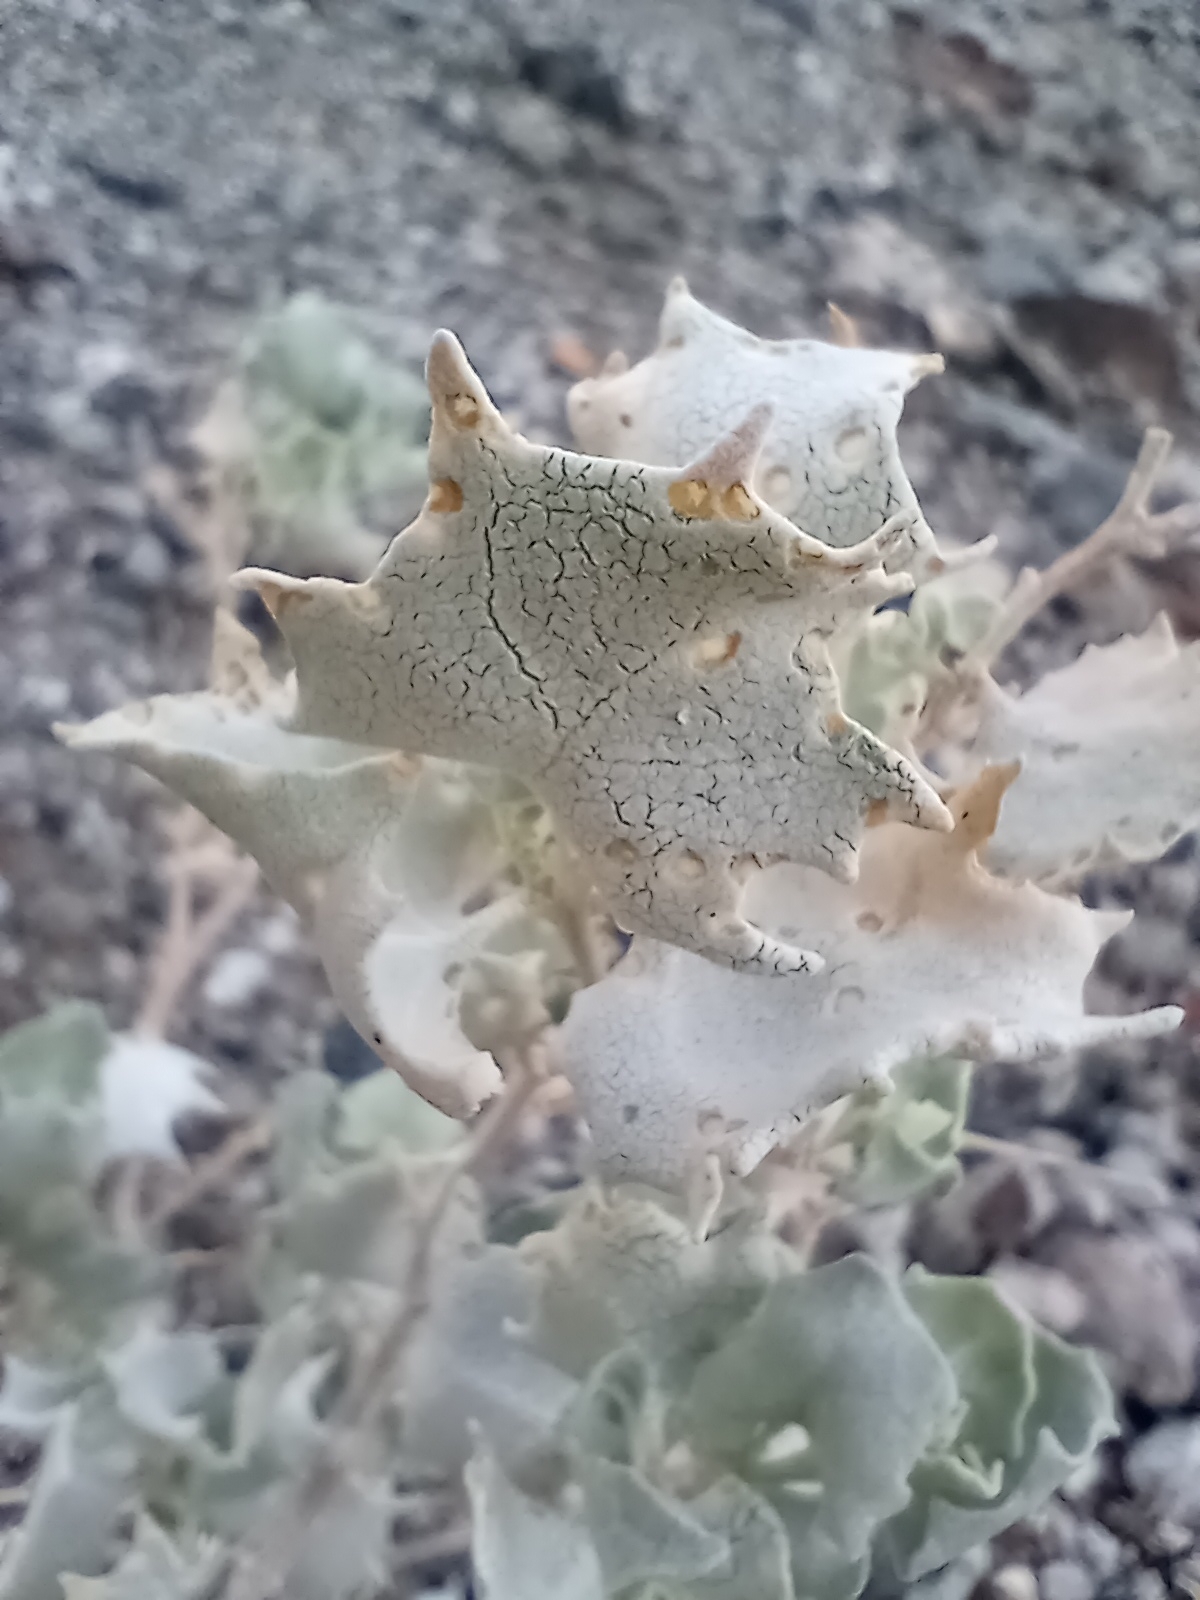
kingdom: Plantae
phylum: Tracheophyta
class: Magnoliopsida
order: Caryophyllales
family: Amaranthaceae
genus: Atriplex
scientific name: Atriplex hymenelytra
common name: Desert-holly
